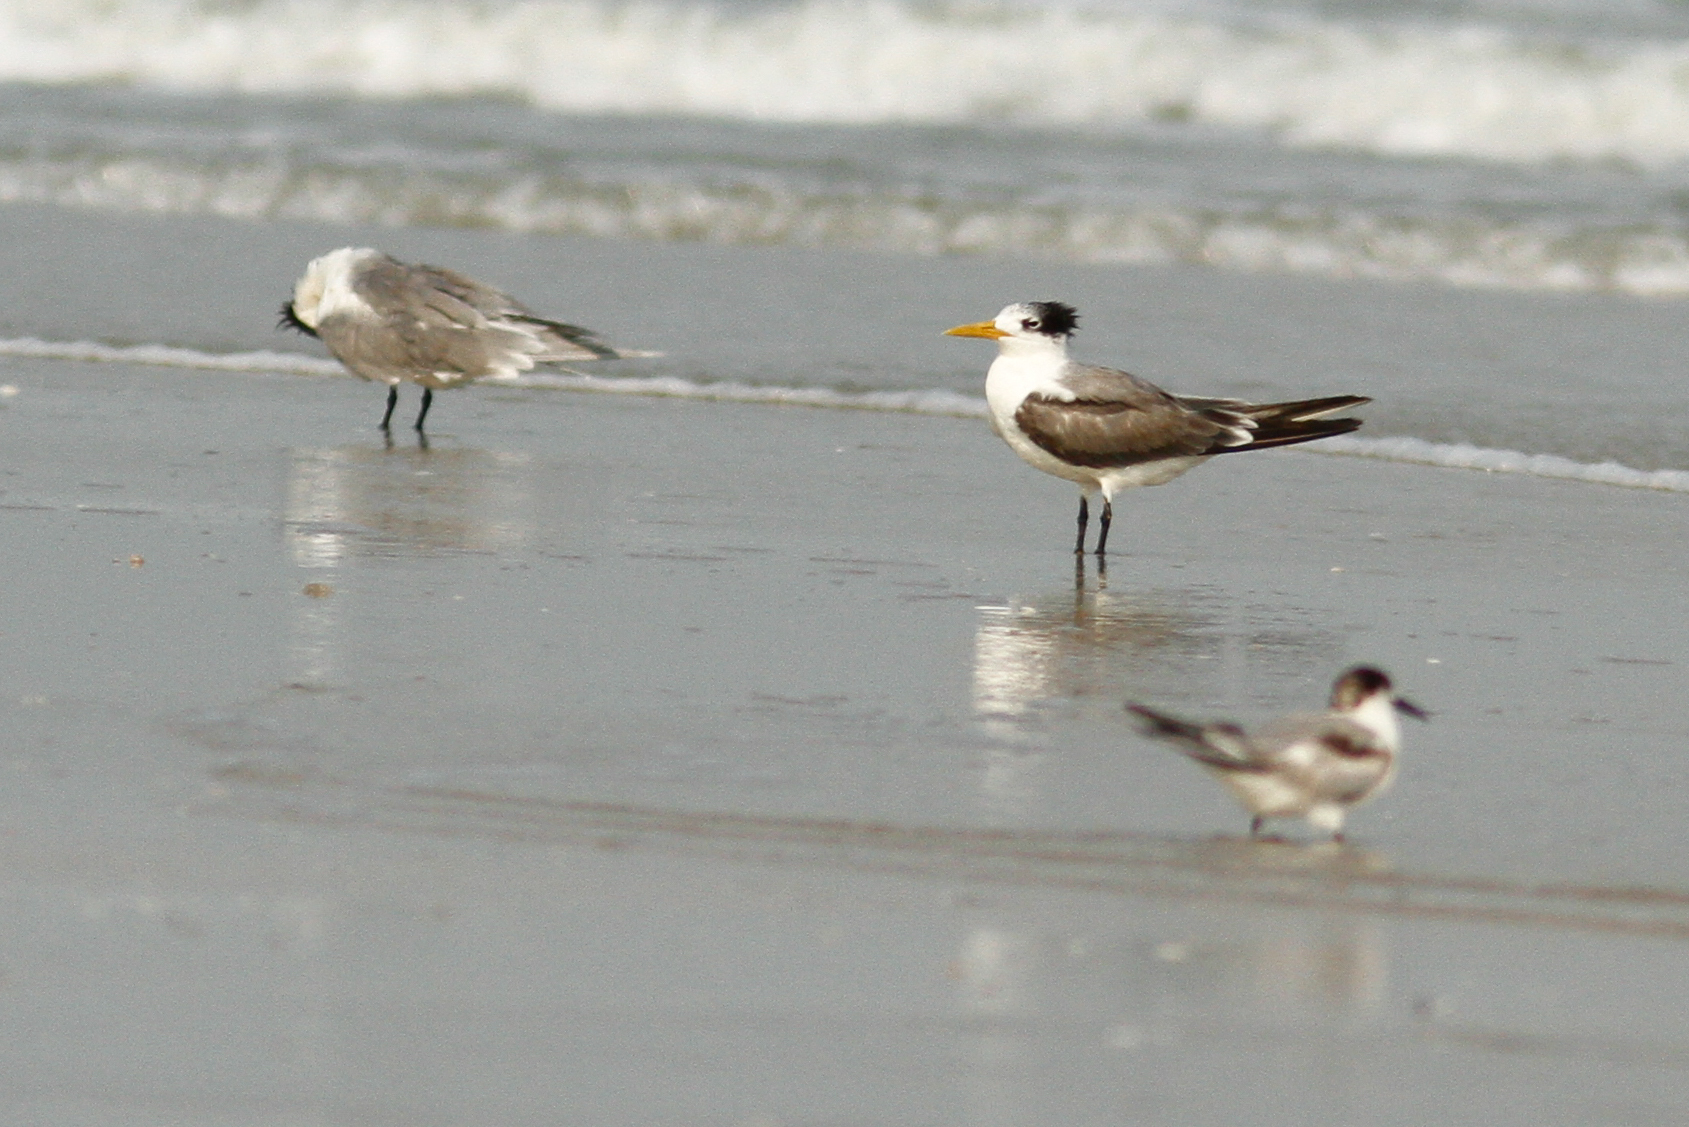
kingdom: Animalia
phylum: Chordata
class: Aves
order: Charadriiformes
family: Laridae
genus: Thalasseus
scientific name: Thalasseus bergii
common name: Greater crested tern
